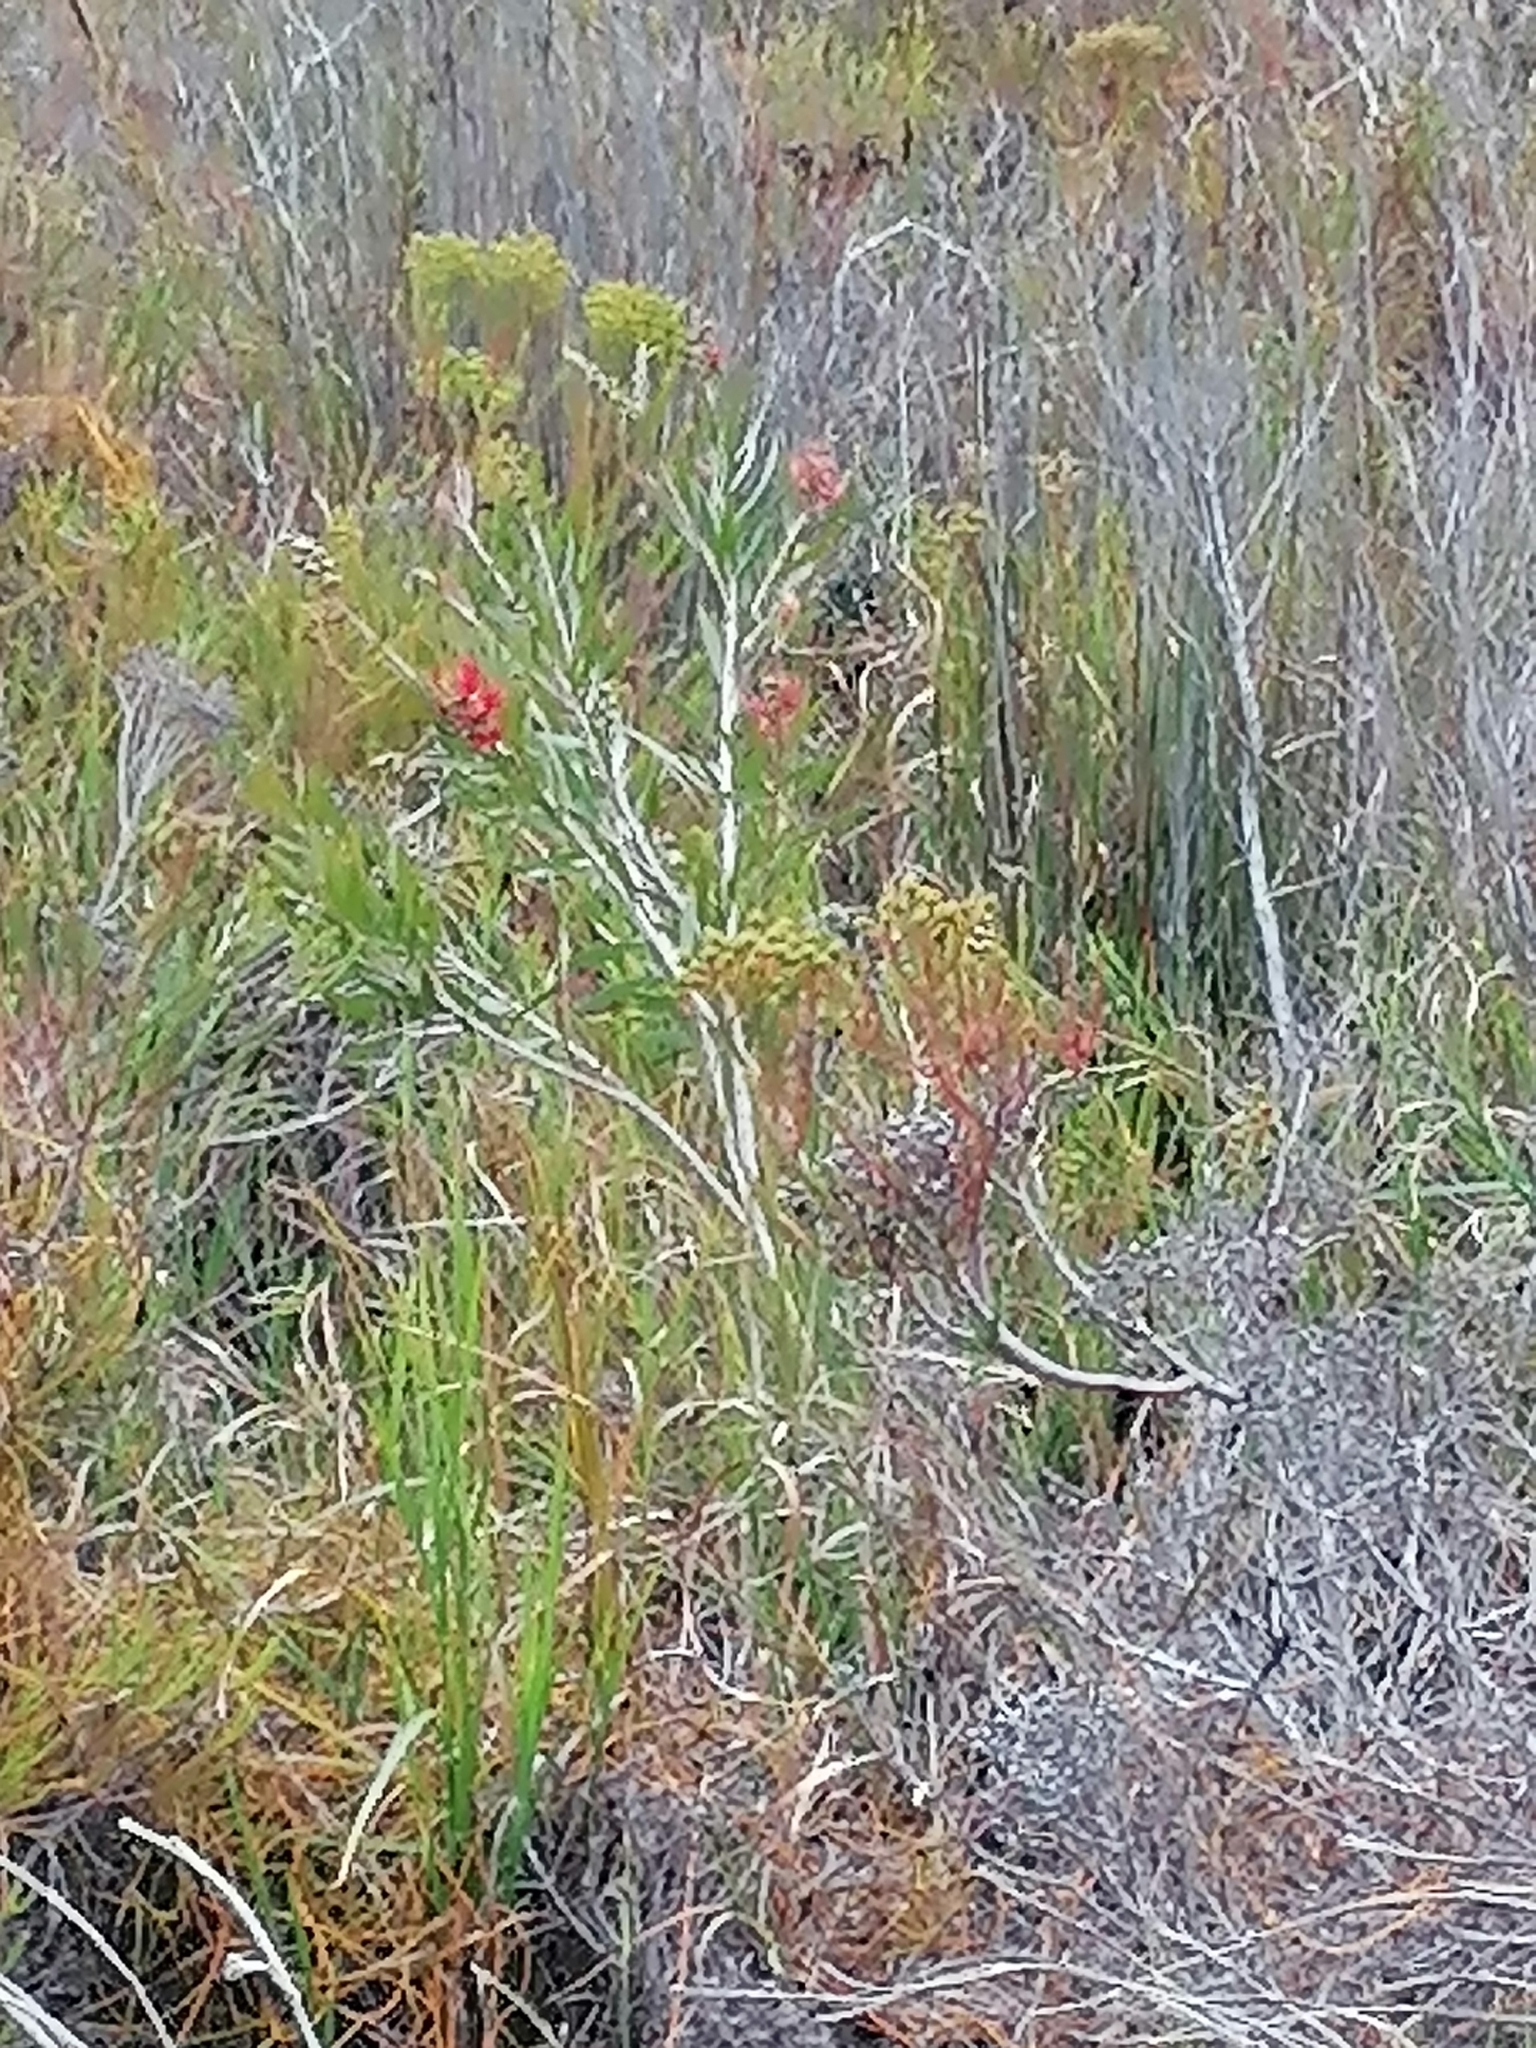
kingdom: Plantae
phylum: Tracheophyta
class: Magnoliopsida
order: Myrtales
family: Myrtaceae
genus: Callistemon
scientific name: Callistemon viminalis
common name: Drooping bottlebrush
